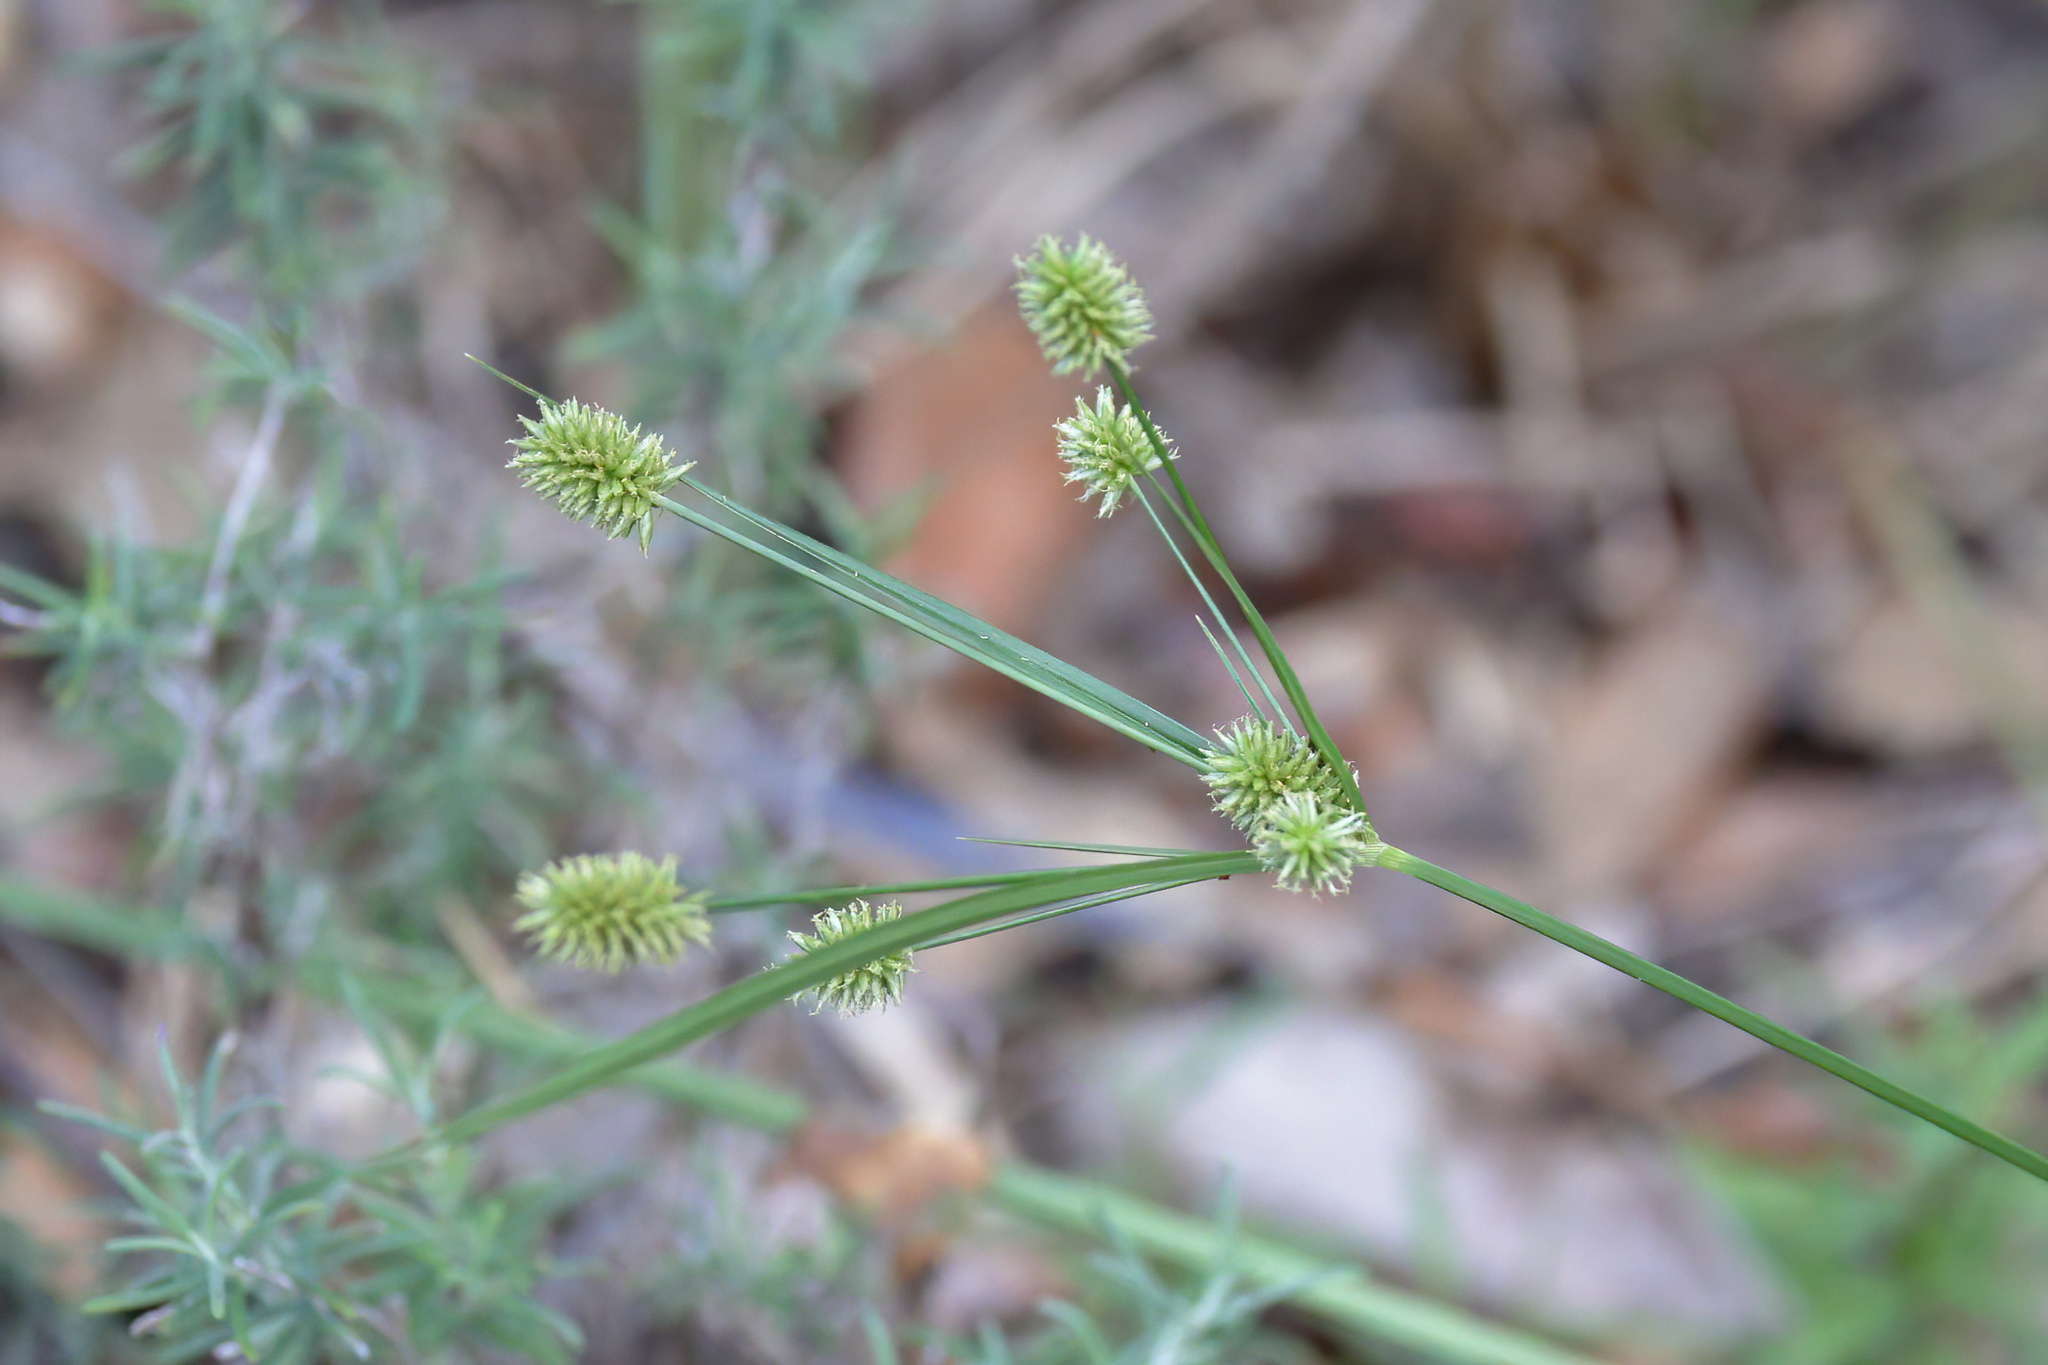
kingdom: Plantae
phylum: Tracheophyta
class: Liliopsida
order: Poales
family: Cyperaceae
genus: Cyperus
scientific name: Cyperus retrorsus
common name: Pinebarren flat sedge
